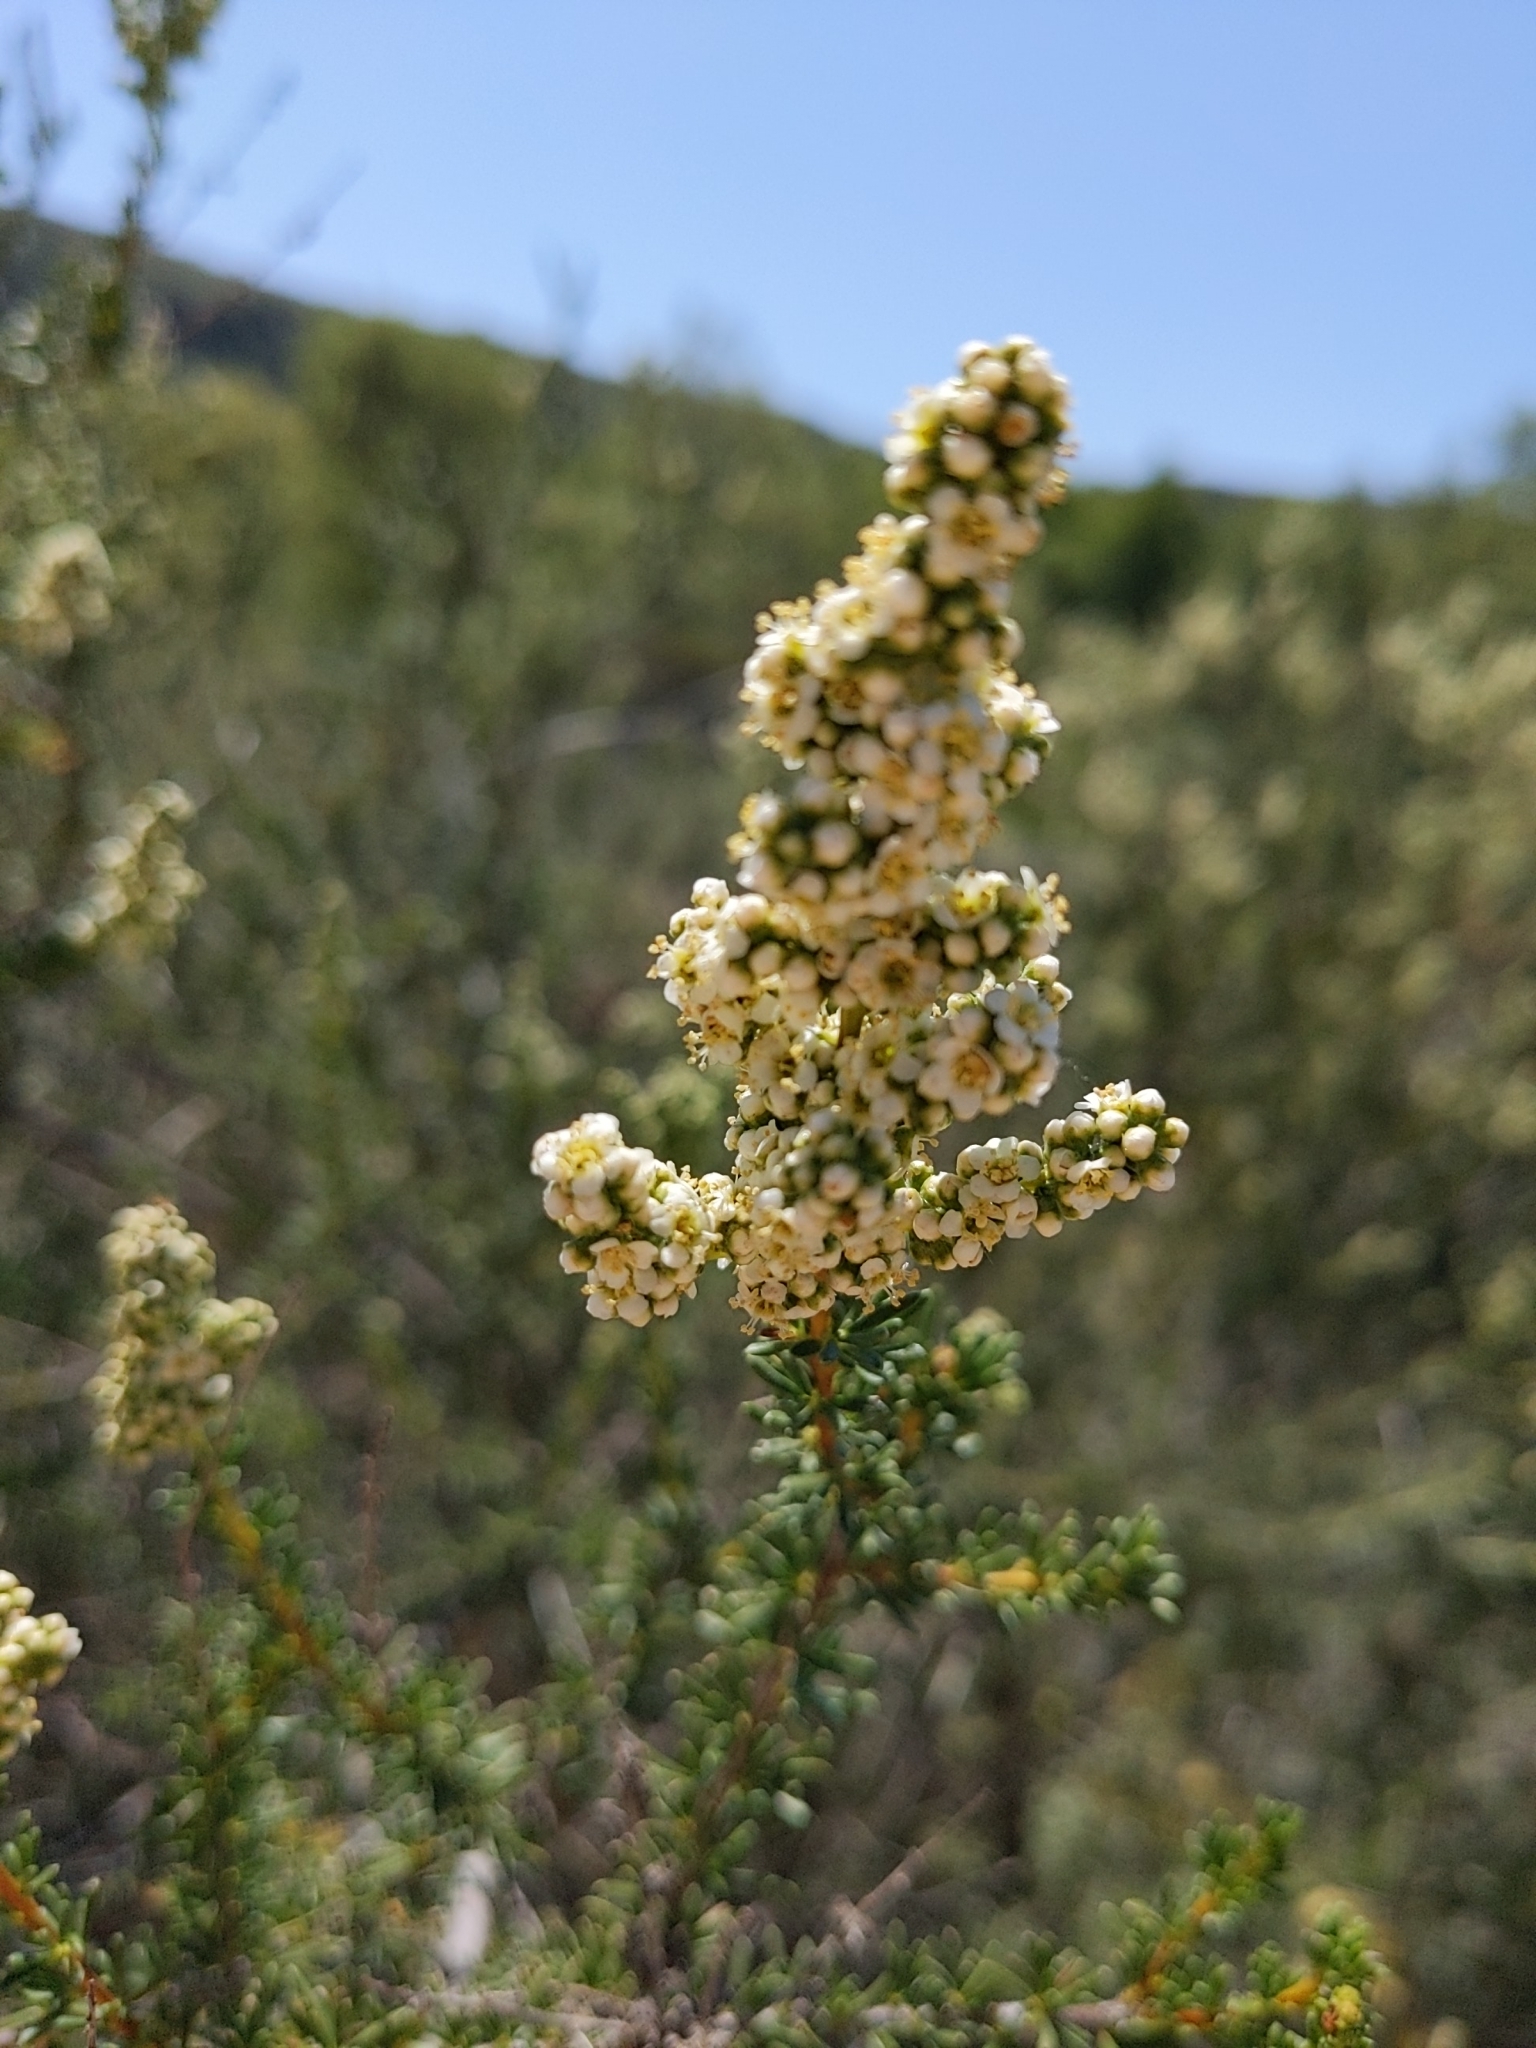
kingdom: Plantae
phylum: Tracheophyta
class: Magnoliopsida
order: Rosales
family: Rosaceae
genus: Adenostoma
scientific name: Adenostoma fasciculatum
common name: Chamise
